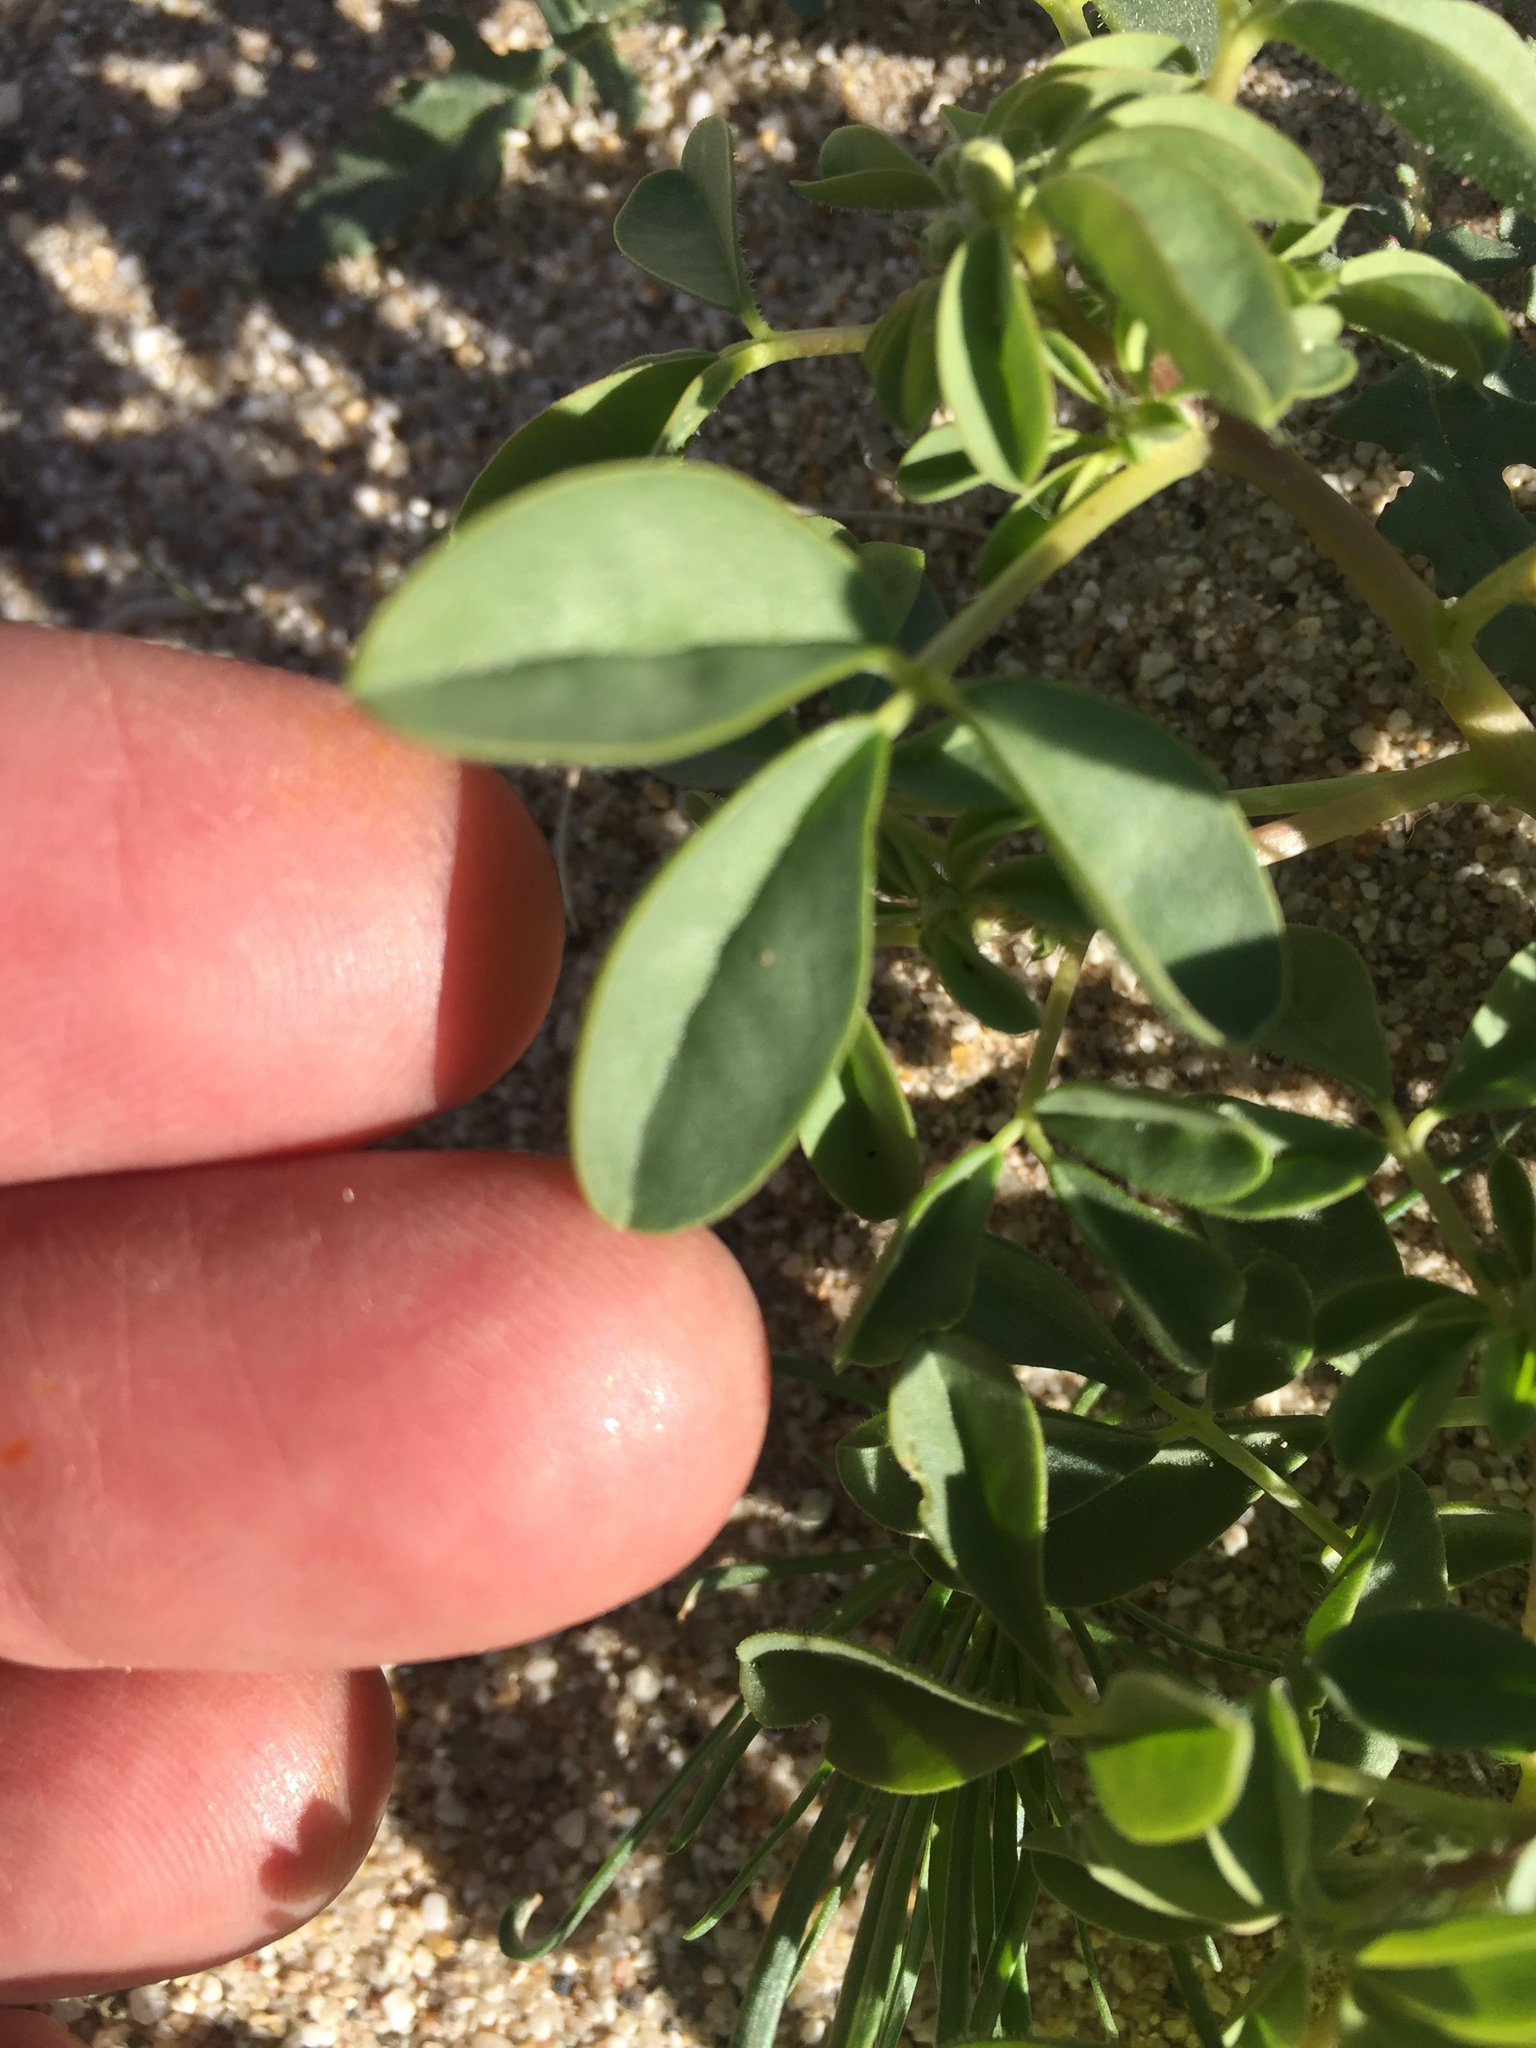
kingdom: Plantae
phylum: Tracheophyta
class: Magnoliopsida
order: Brassicales
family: Cleomaceae
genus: Cleomella
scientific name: Cleomella obtusifolia
